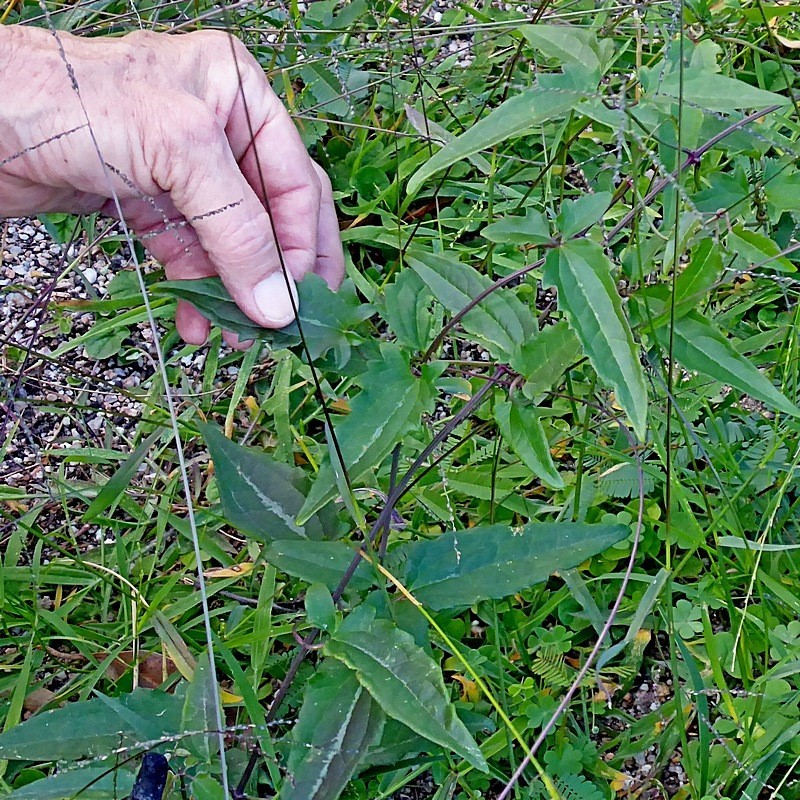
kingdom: Plantae
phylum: Tracheophyta
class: Magnoliopsida
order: Ranunculales
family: Ranunculaceae
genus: Clematis
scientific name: Clematis aristata
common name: Mountain clematis
